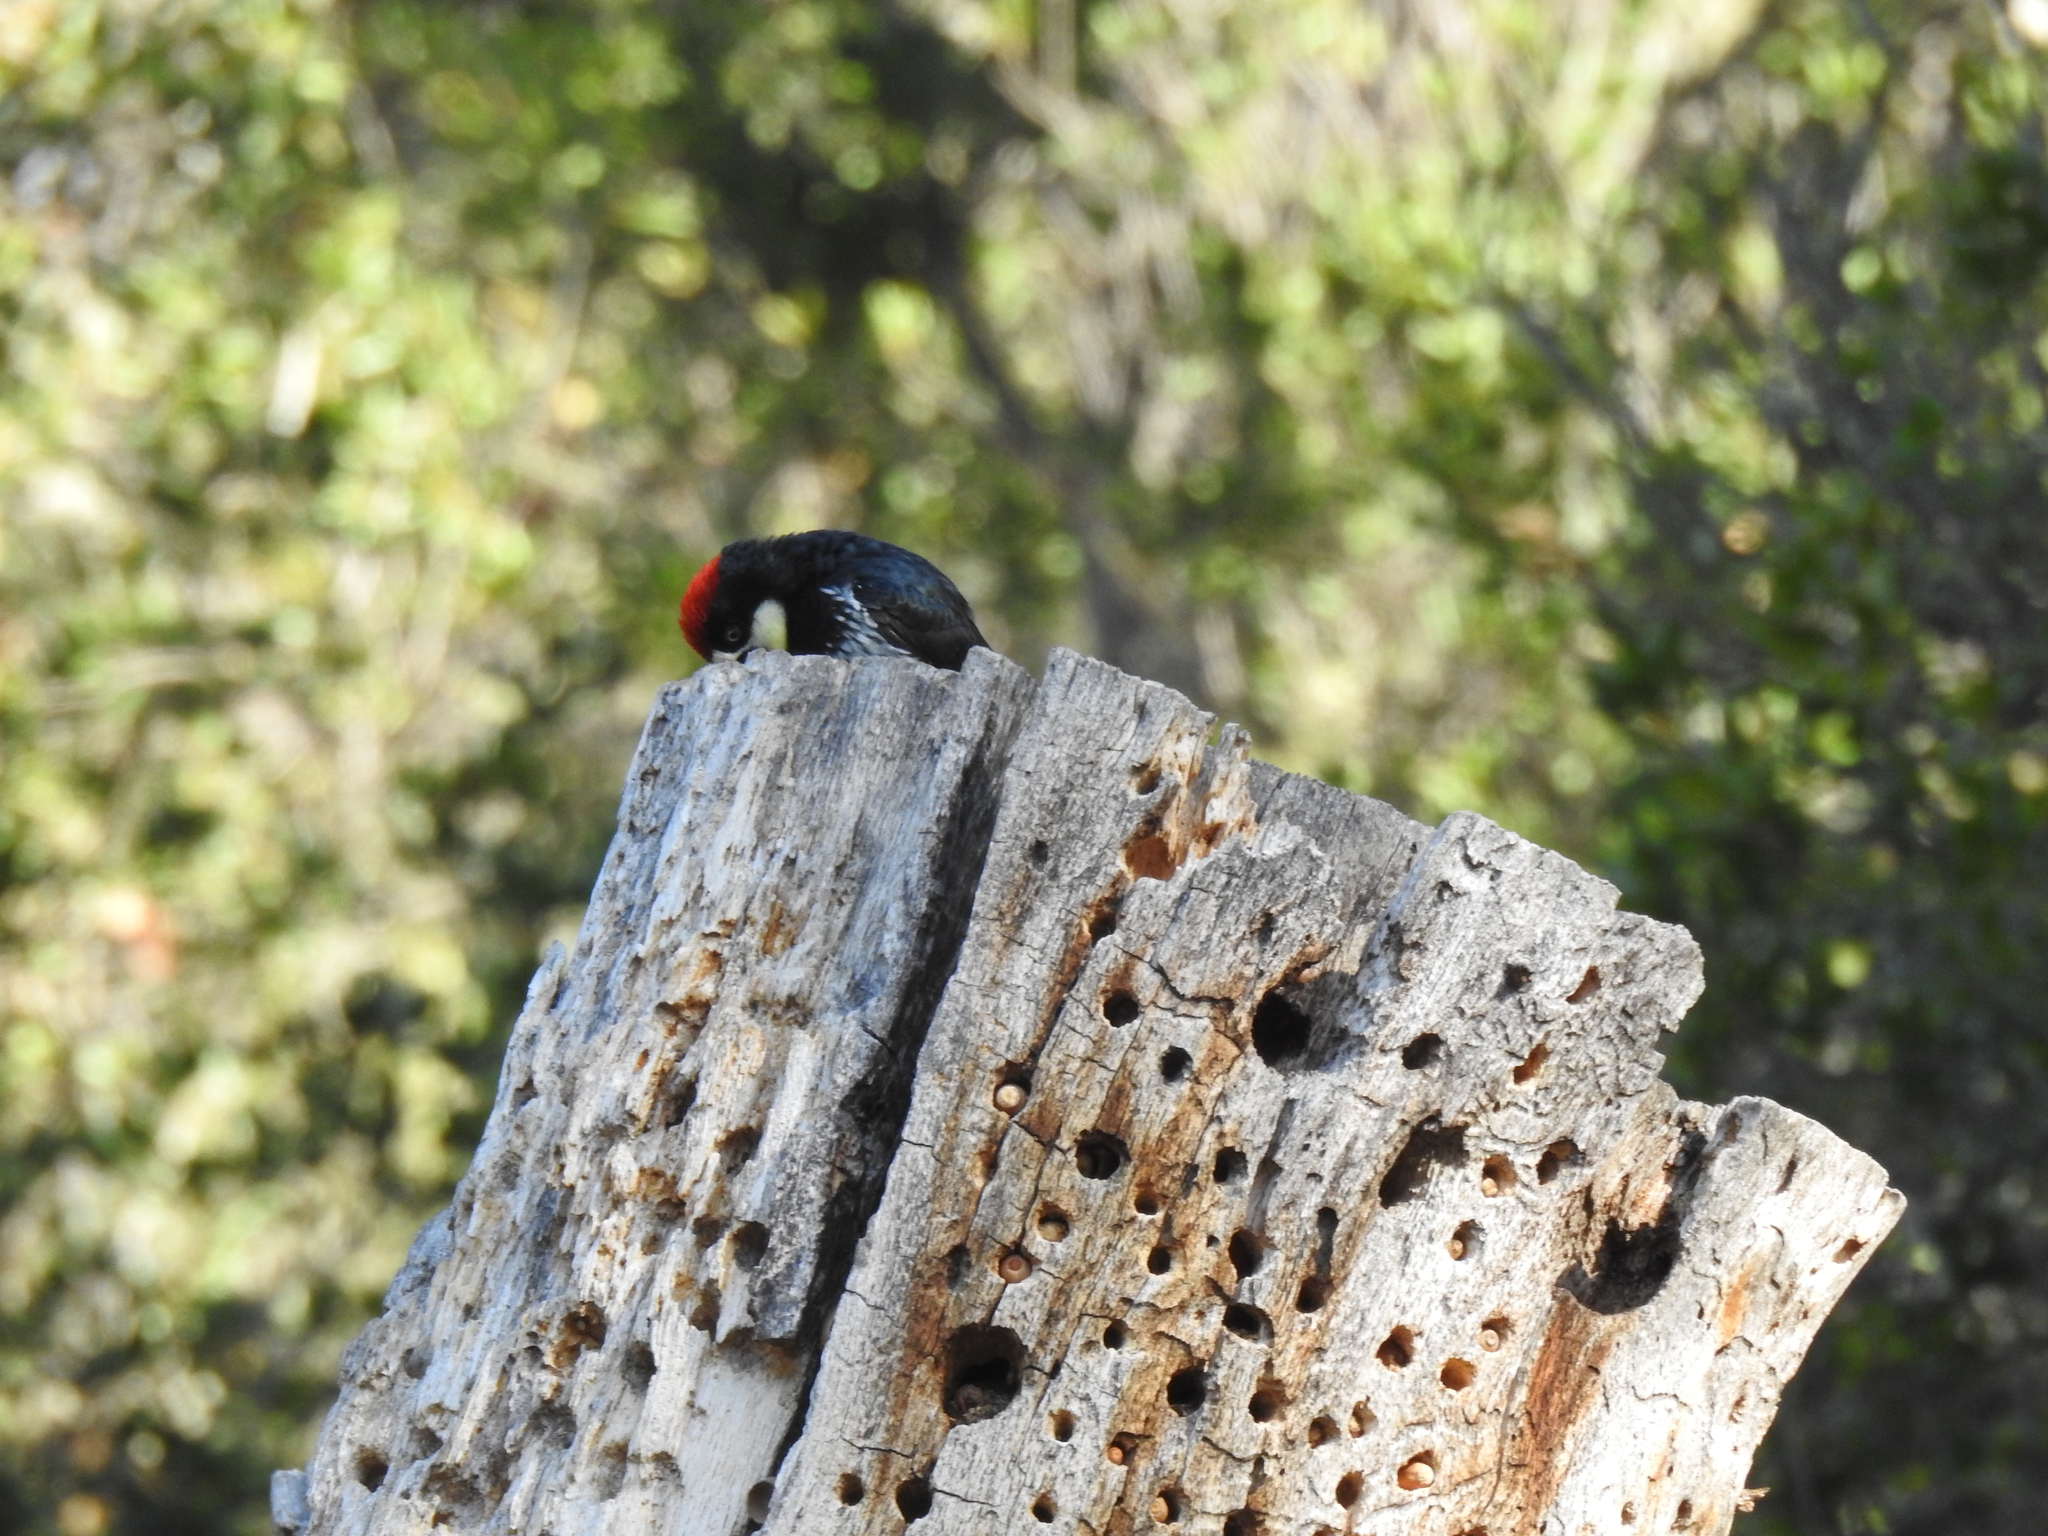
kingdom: Animalia
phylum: Chordata
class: Aves
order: Piciformes
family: Picidae
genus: Melanerpes
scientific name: Melanerpes formicivorus
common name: Acorn woodpecker
